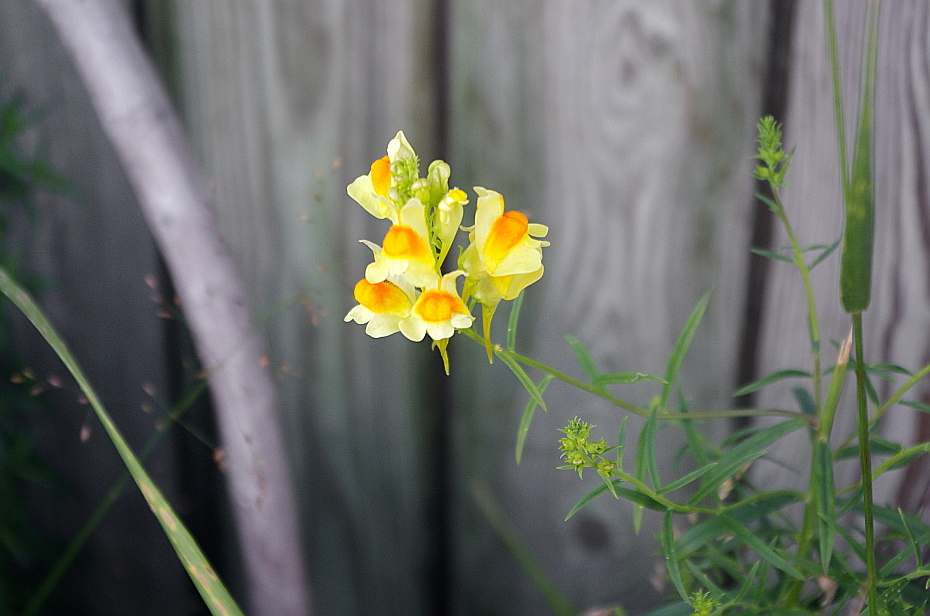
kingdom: Plantae
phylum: Tracheophyta
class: Magnoliopsida
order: Lamiales
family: Plantaginaceae
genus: Linaria
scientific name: Linaria vulgaris
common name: Butter and eggs
